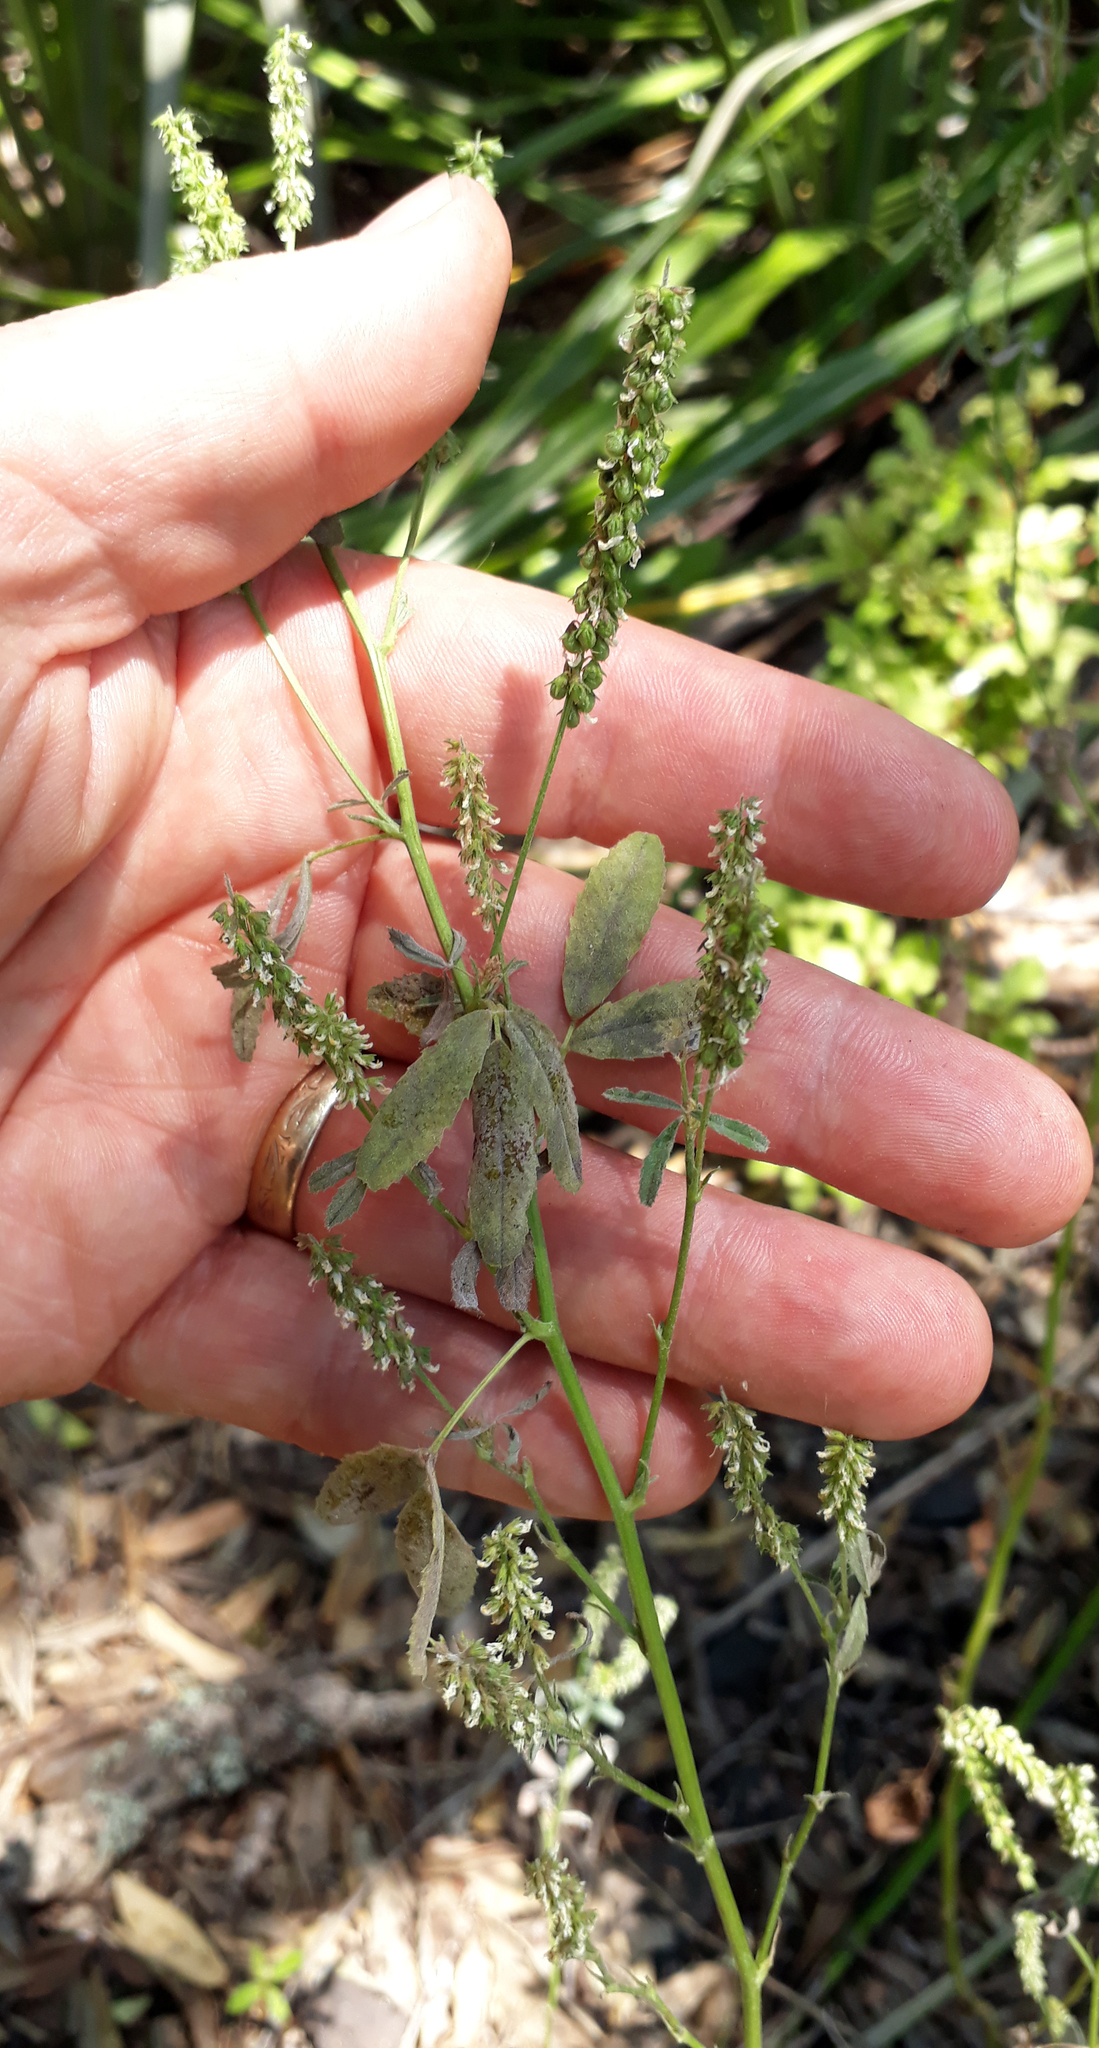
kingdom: Fungi
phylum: Ascomycota
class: Leotiomycetes
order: Helotiales
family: Erysiphaceae
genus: Erysiphe
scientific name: Erysiphe pisi
